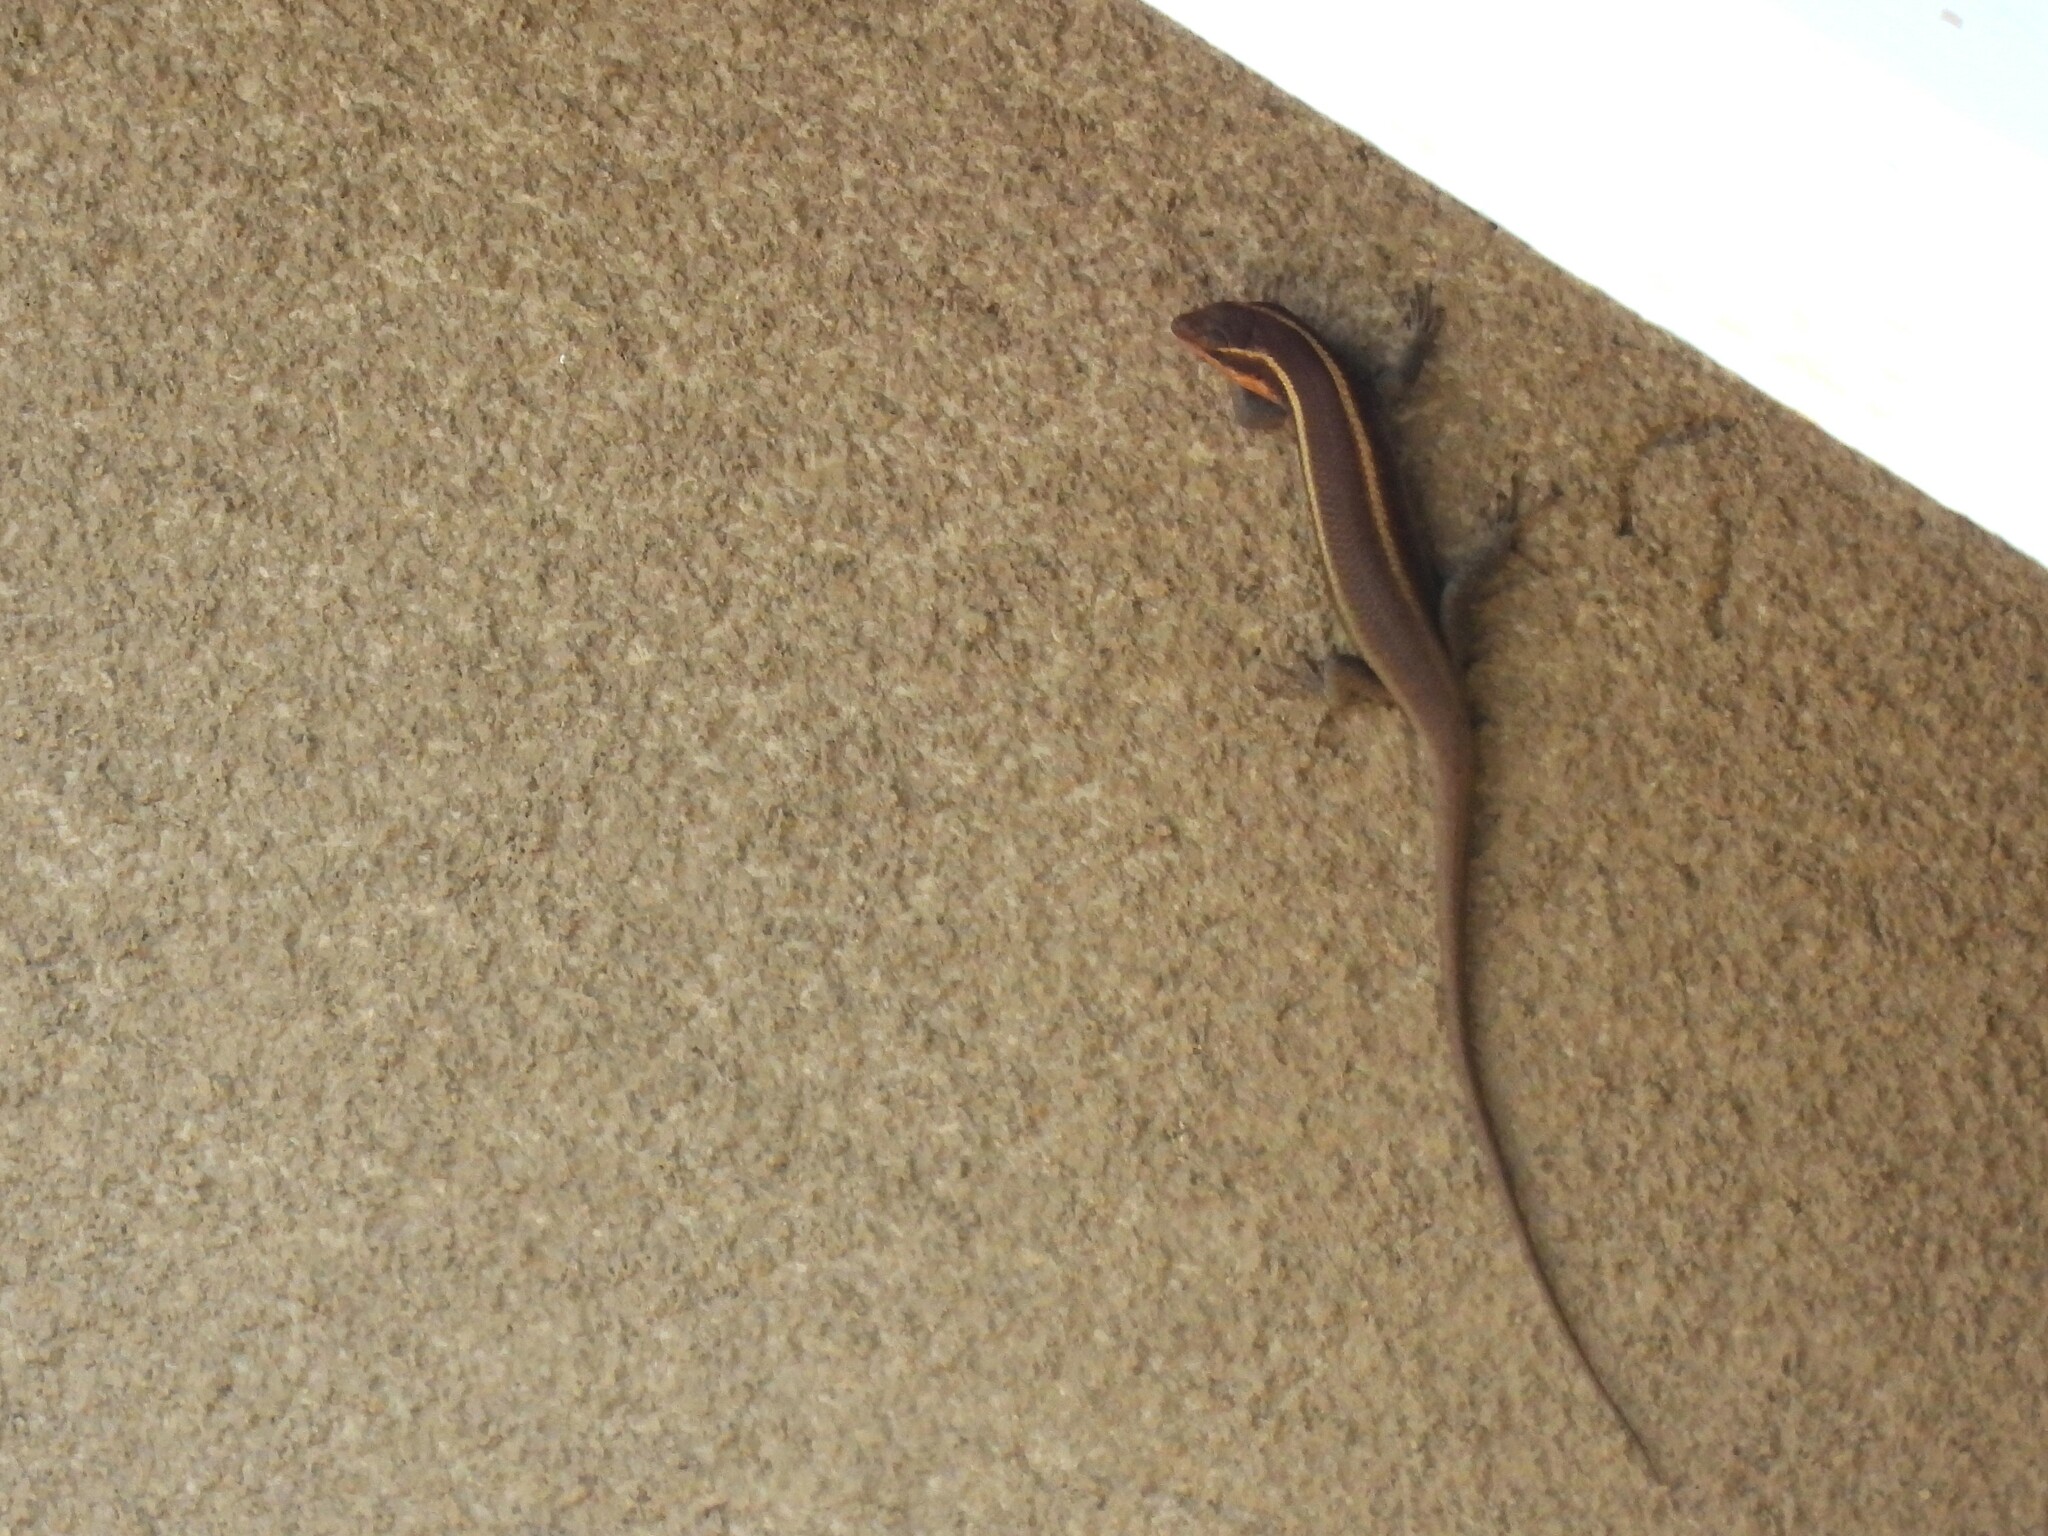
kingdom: Animalia
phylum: Chordata
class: Squamata
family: Scincidae
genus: Trachylepis
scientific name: Trachylepis striata
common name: African striped mabuya
